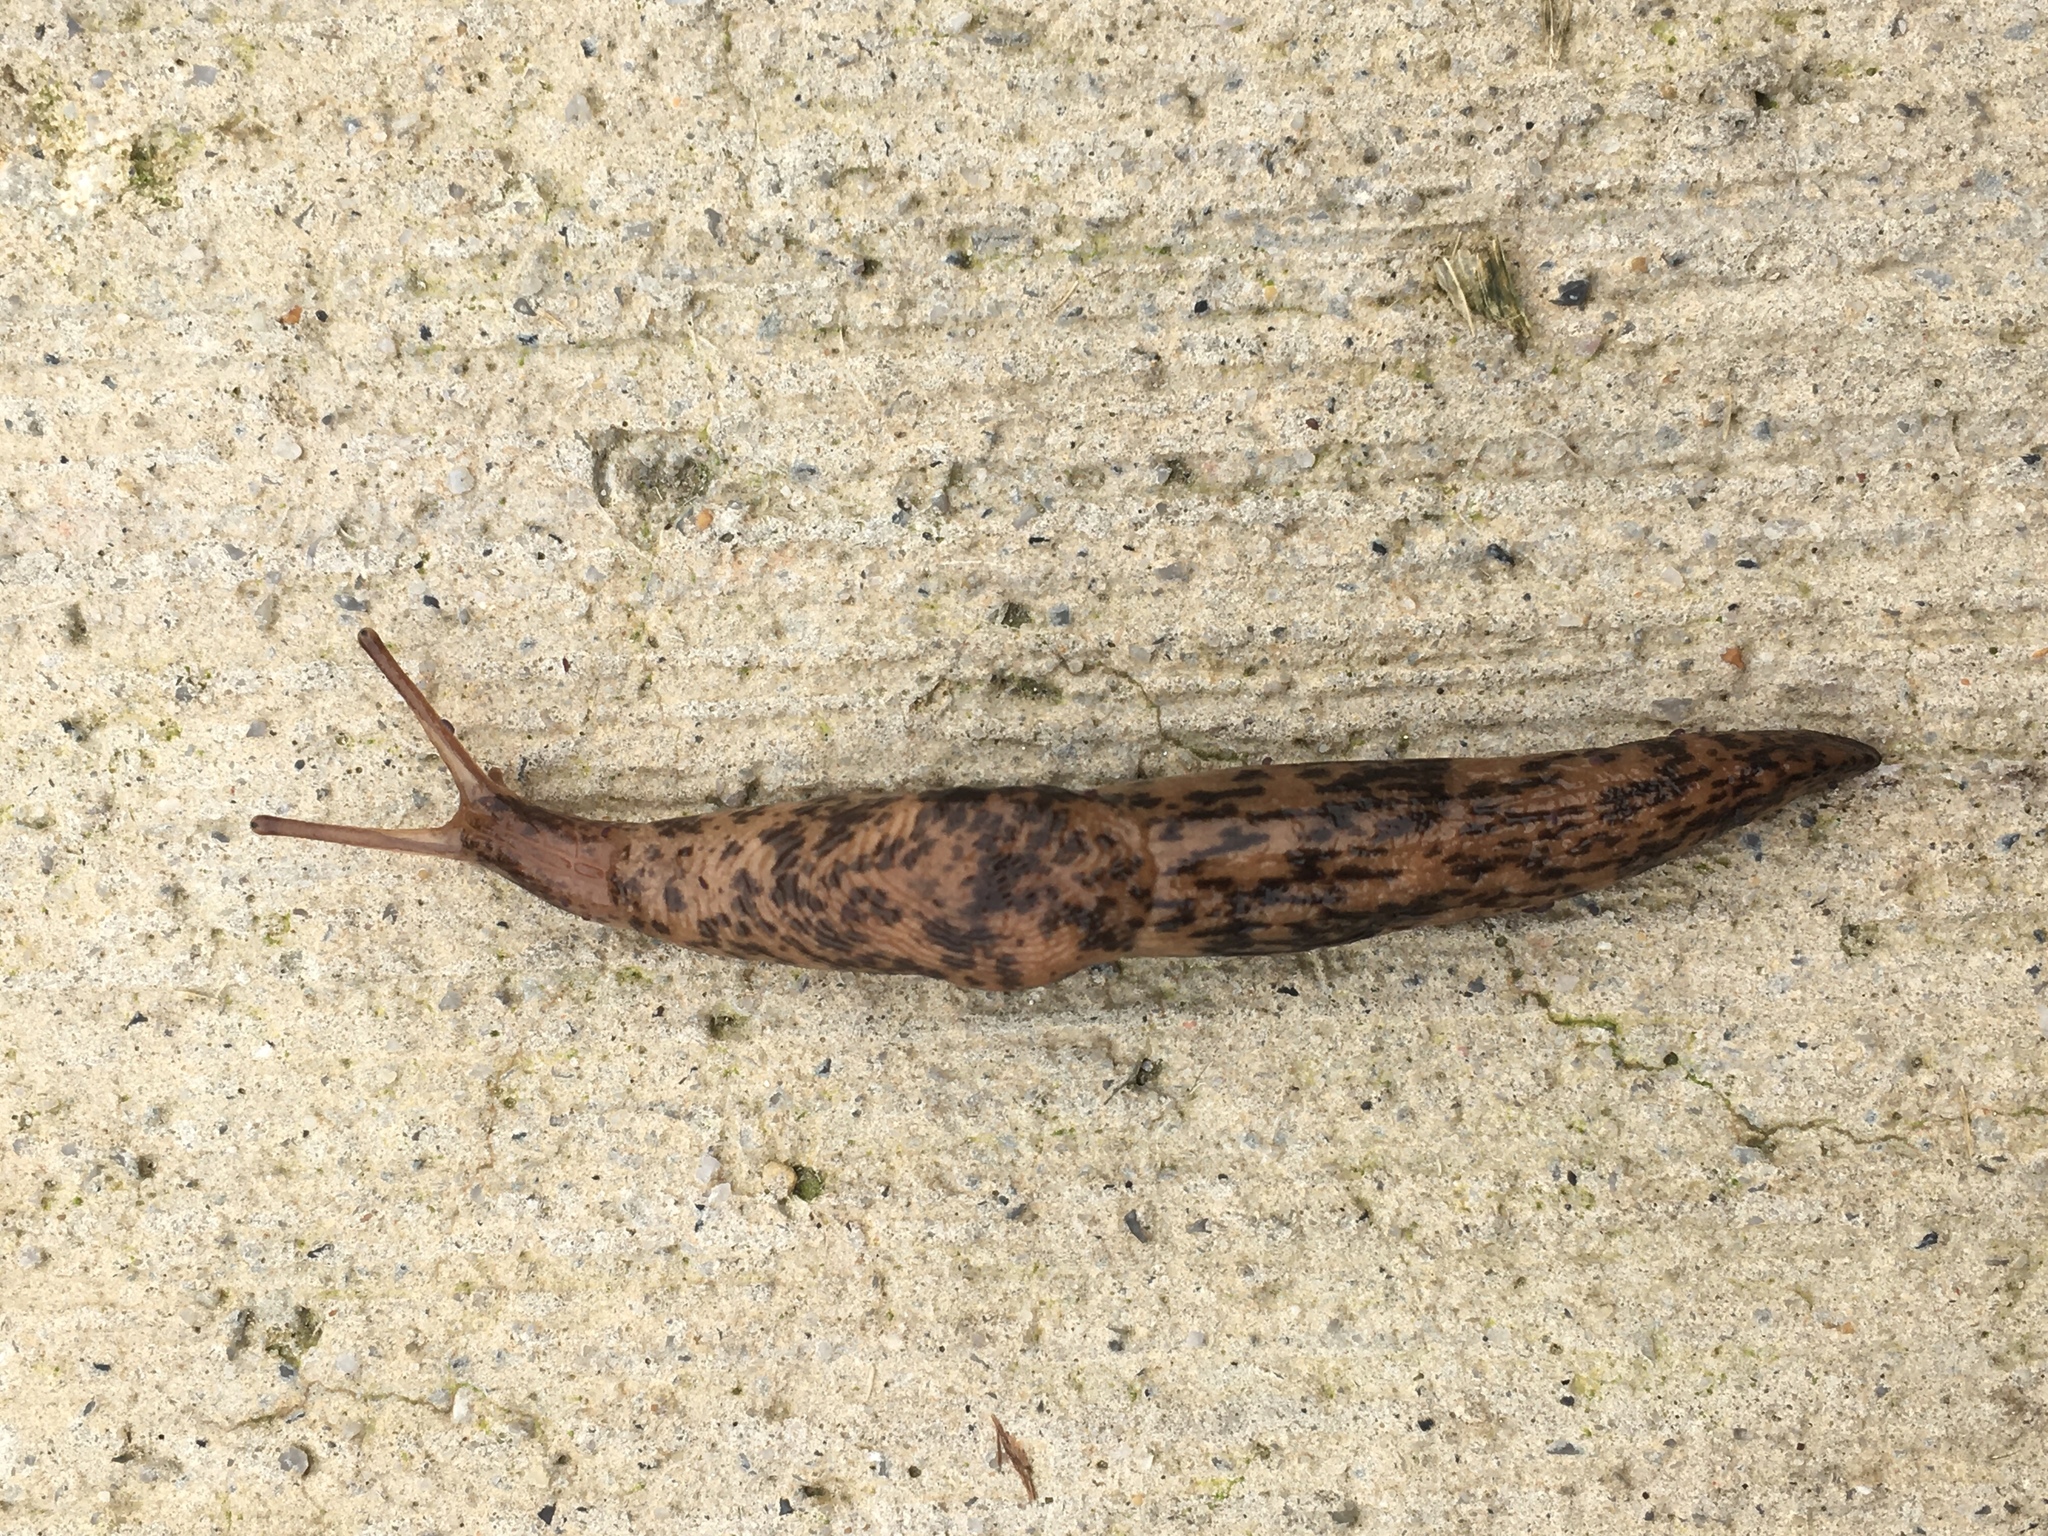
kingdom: Animalia
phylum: Mollusca
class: Gastropoda
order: Stylommatophora
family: Agriolimacidae
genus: Deroceras
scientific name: Deroceras reticulatum
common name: Gray field slug
